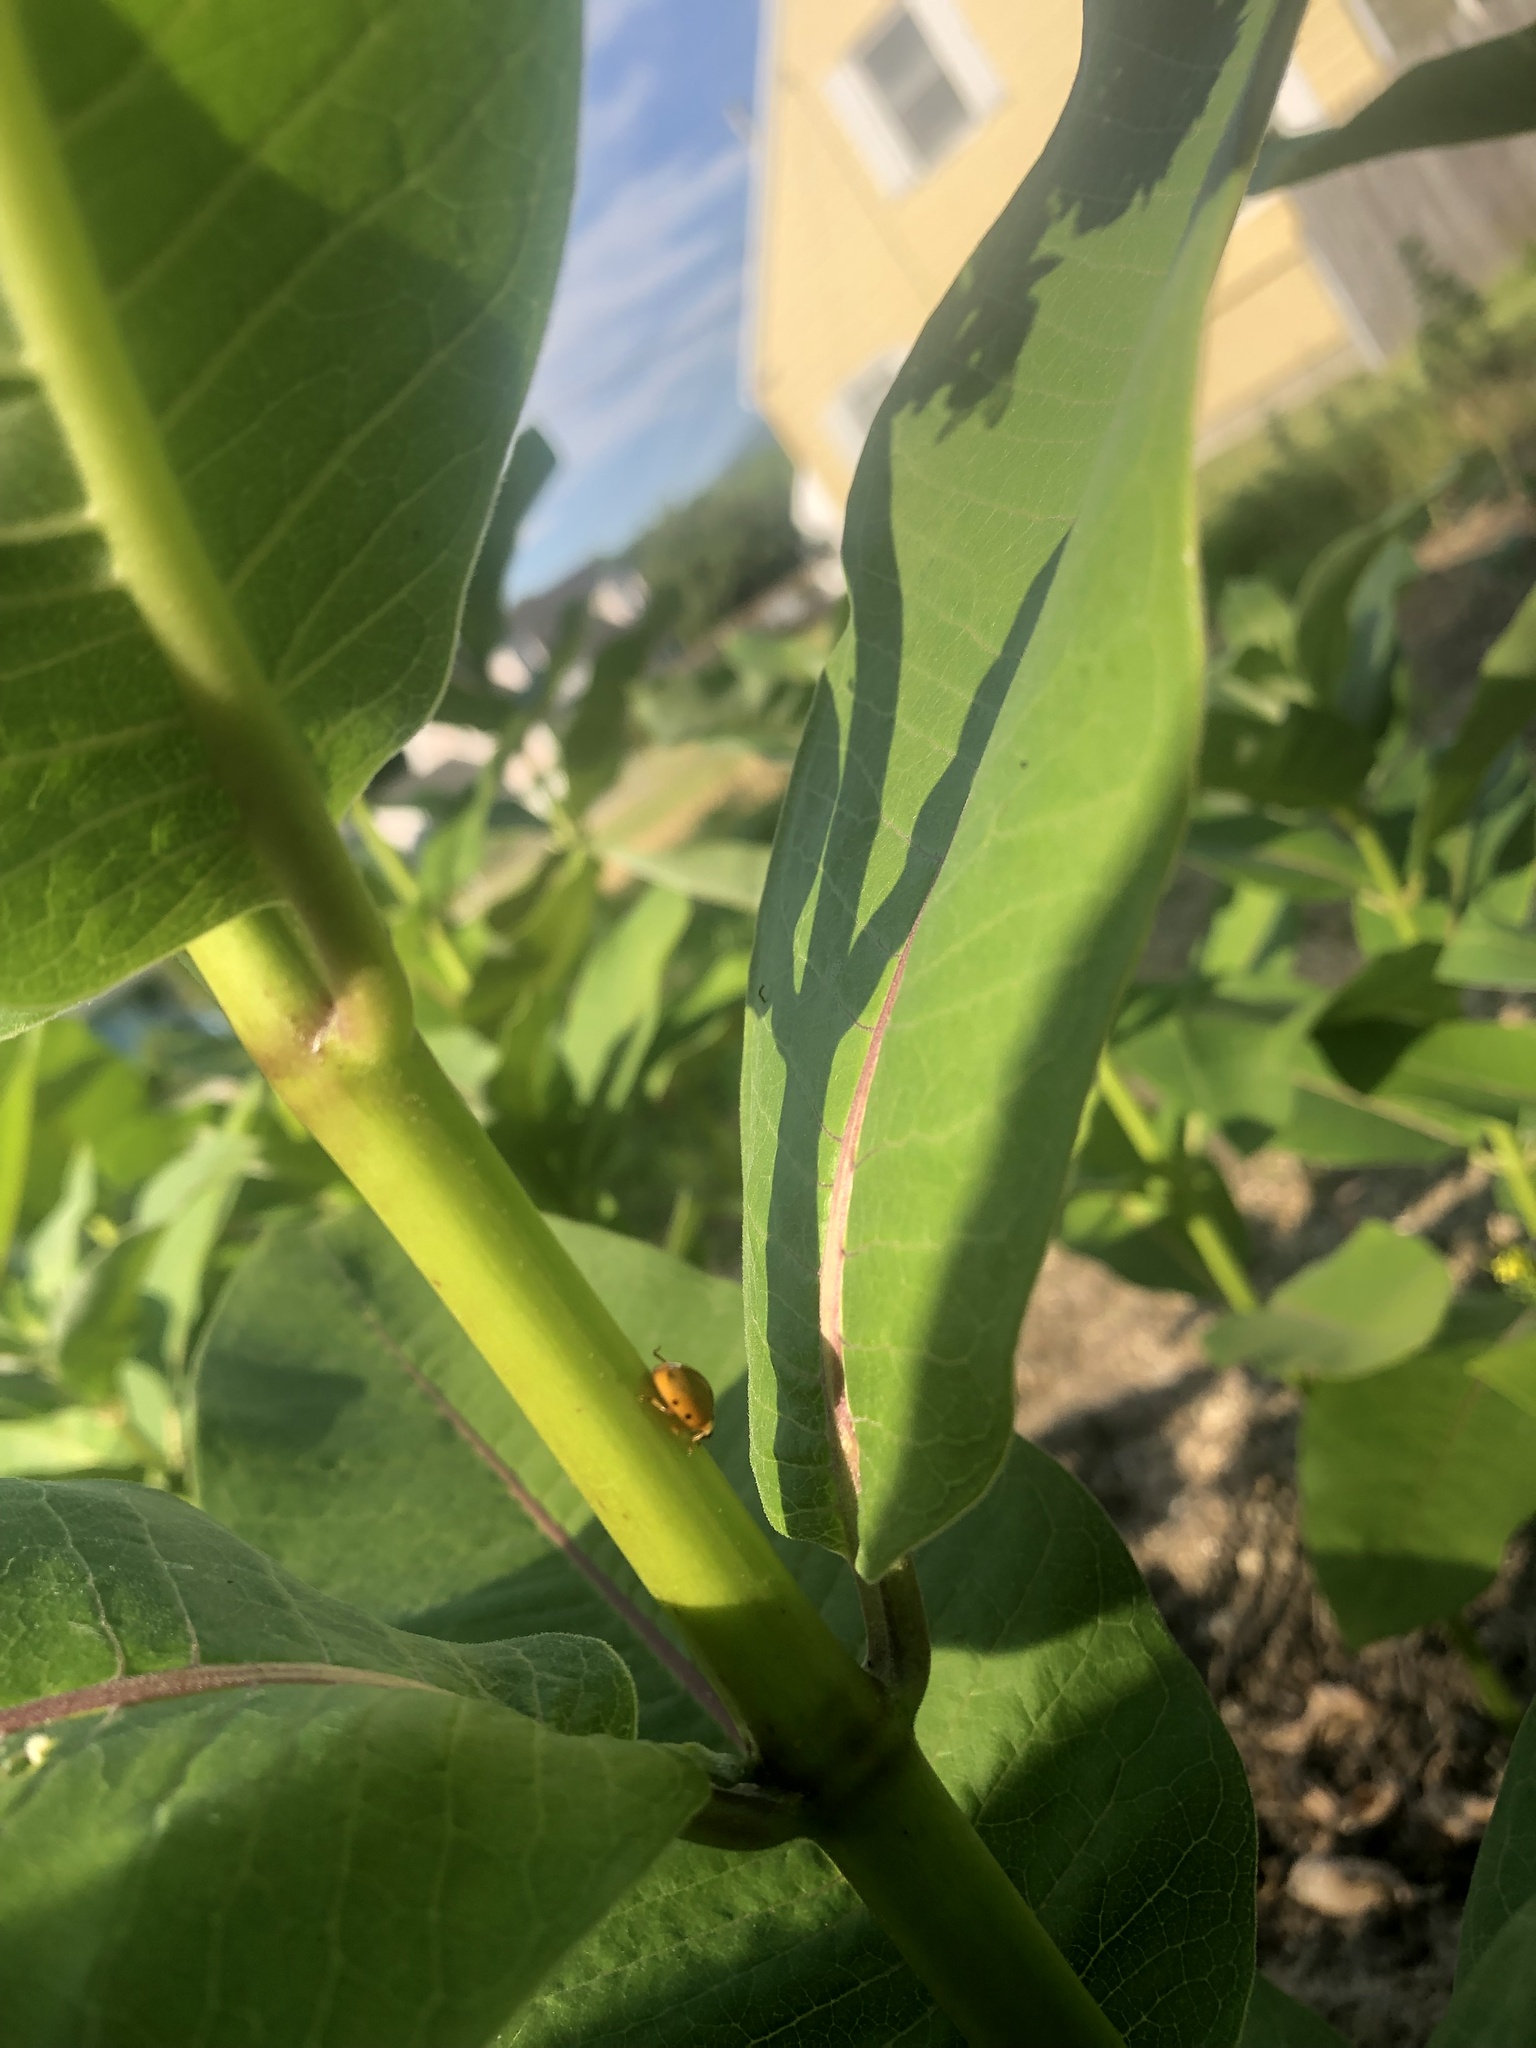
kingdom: Animalia
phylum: Arthropoda
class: Insecta
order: Coleoptera
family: Coccinellidae
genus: Harmonia
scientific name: Harmonia axyridis
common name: Harlequin ladybird
